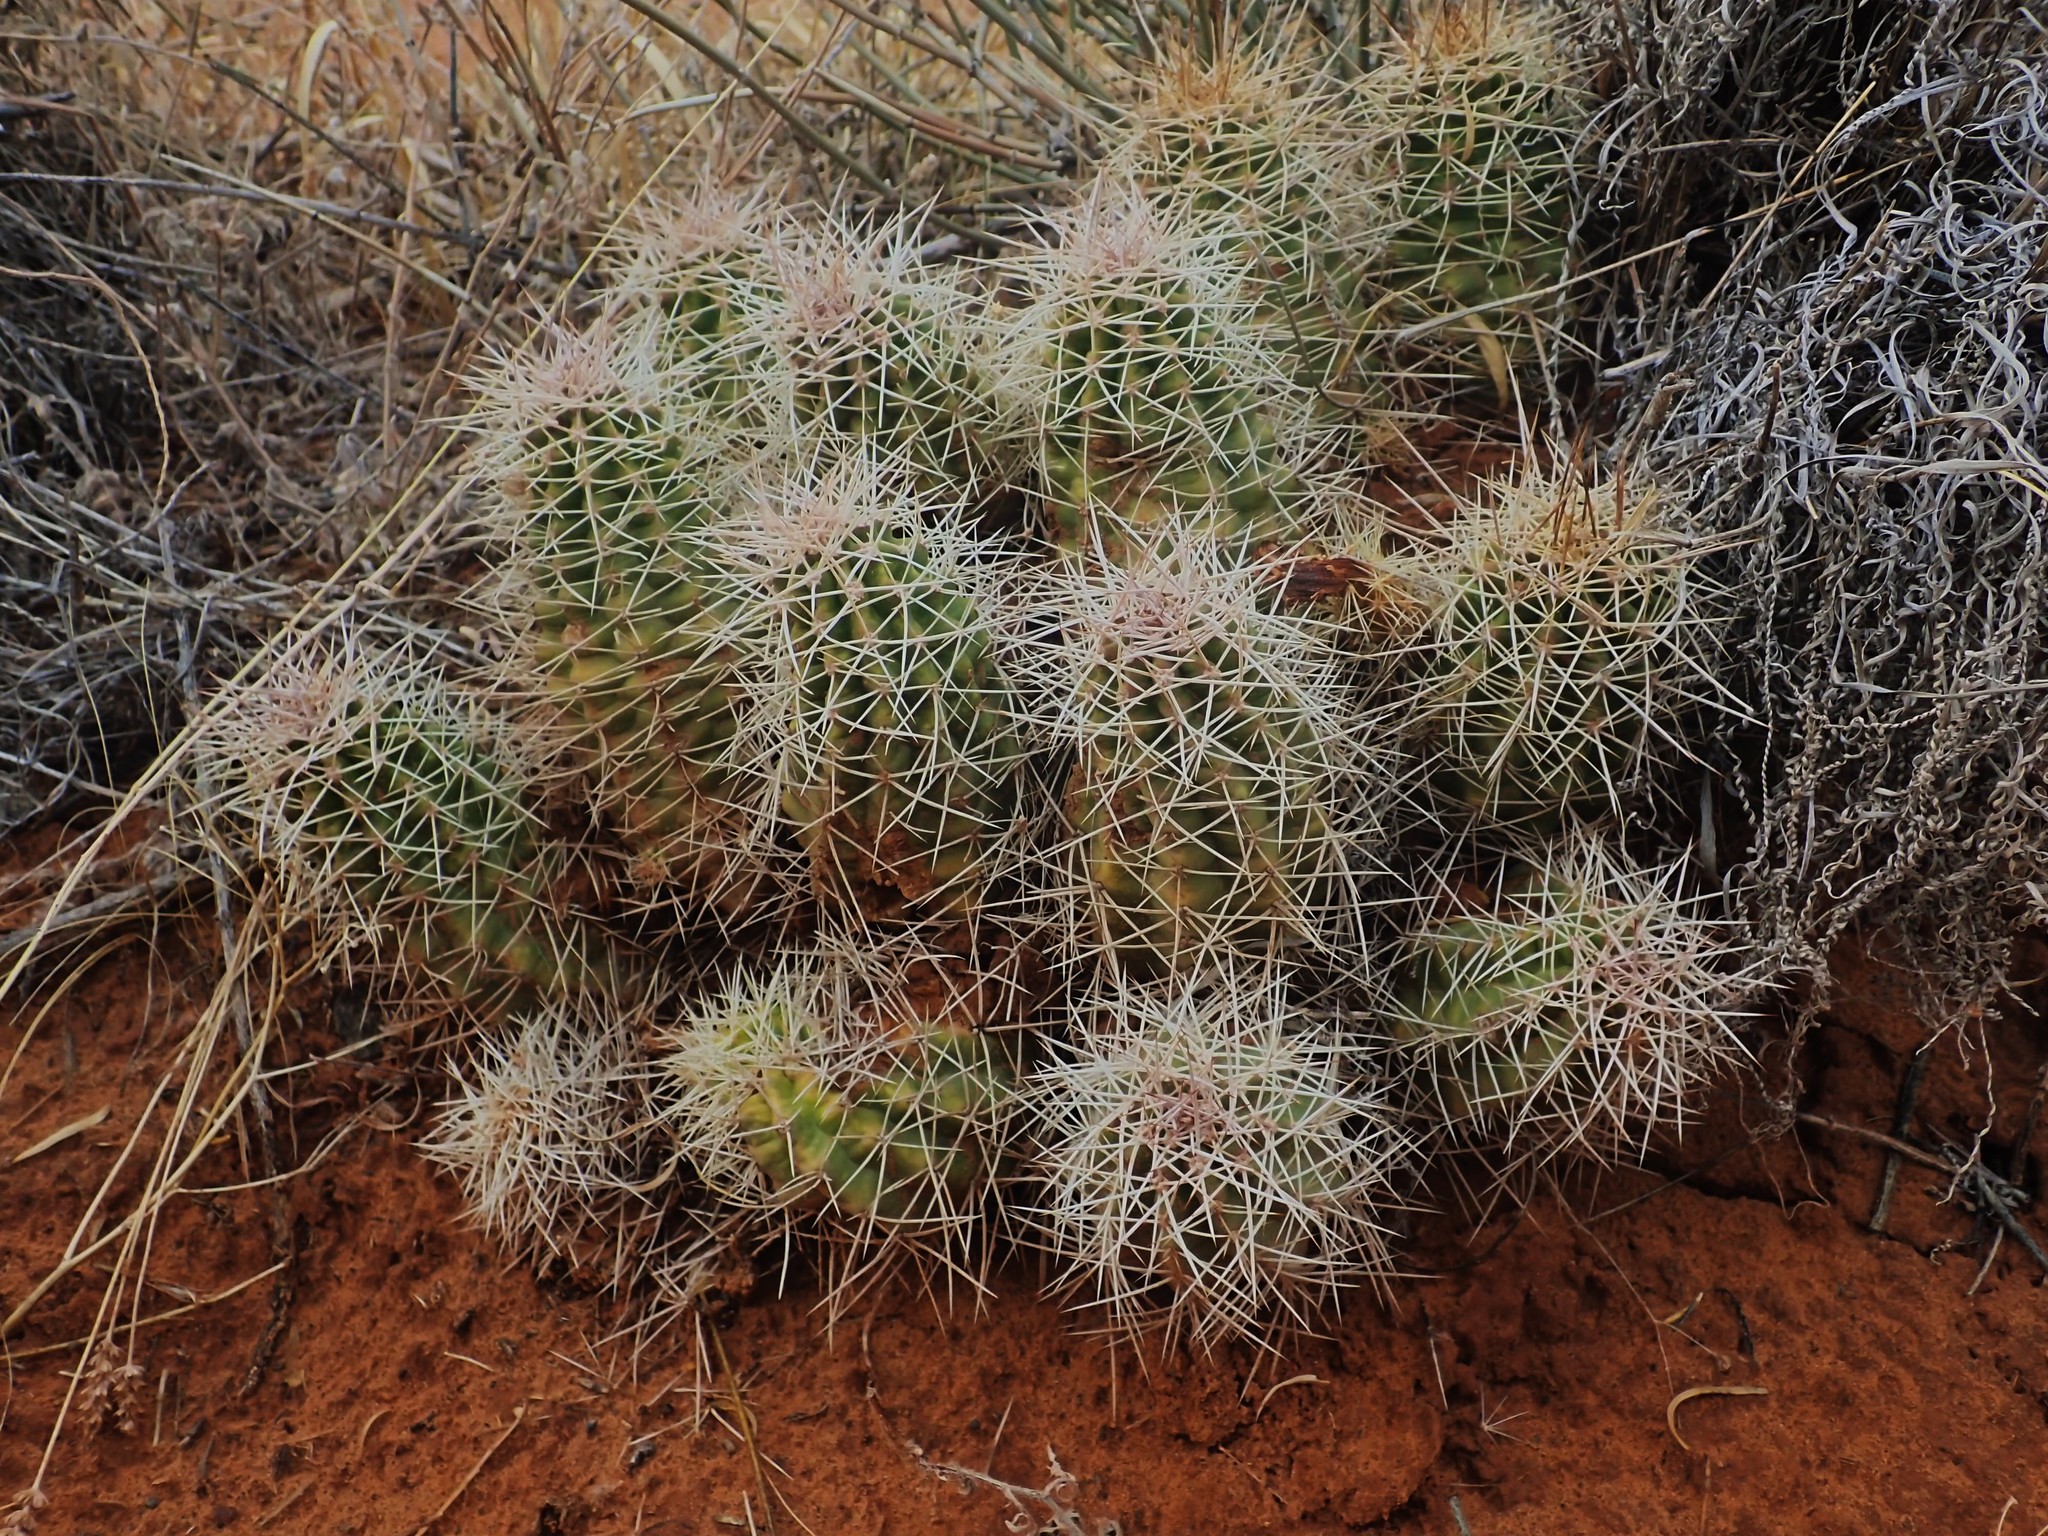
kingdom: Plantae
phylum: Tracheophyta
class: Magnoliopsida
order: Caryophyllales
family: Cactaceae
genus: Echinocereus
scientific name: Echinocereus triglochidiatus
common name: Claretcup hedgehog
